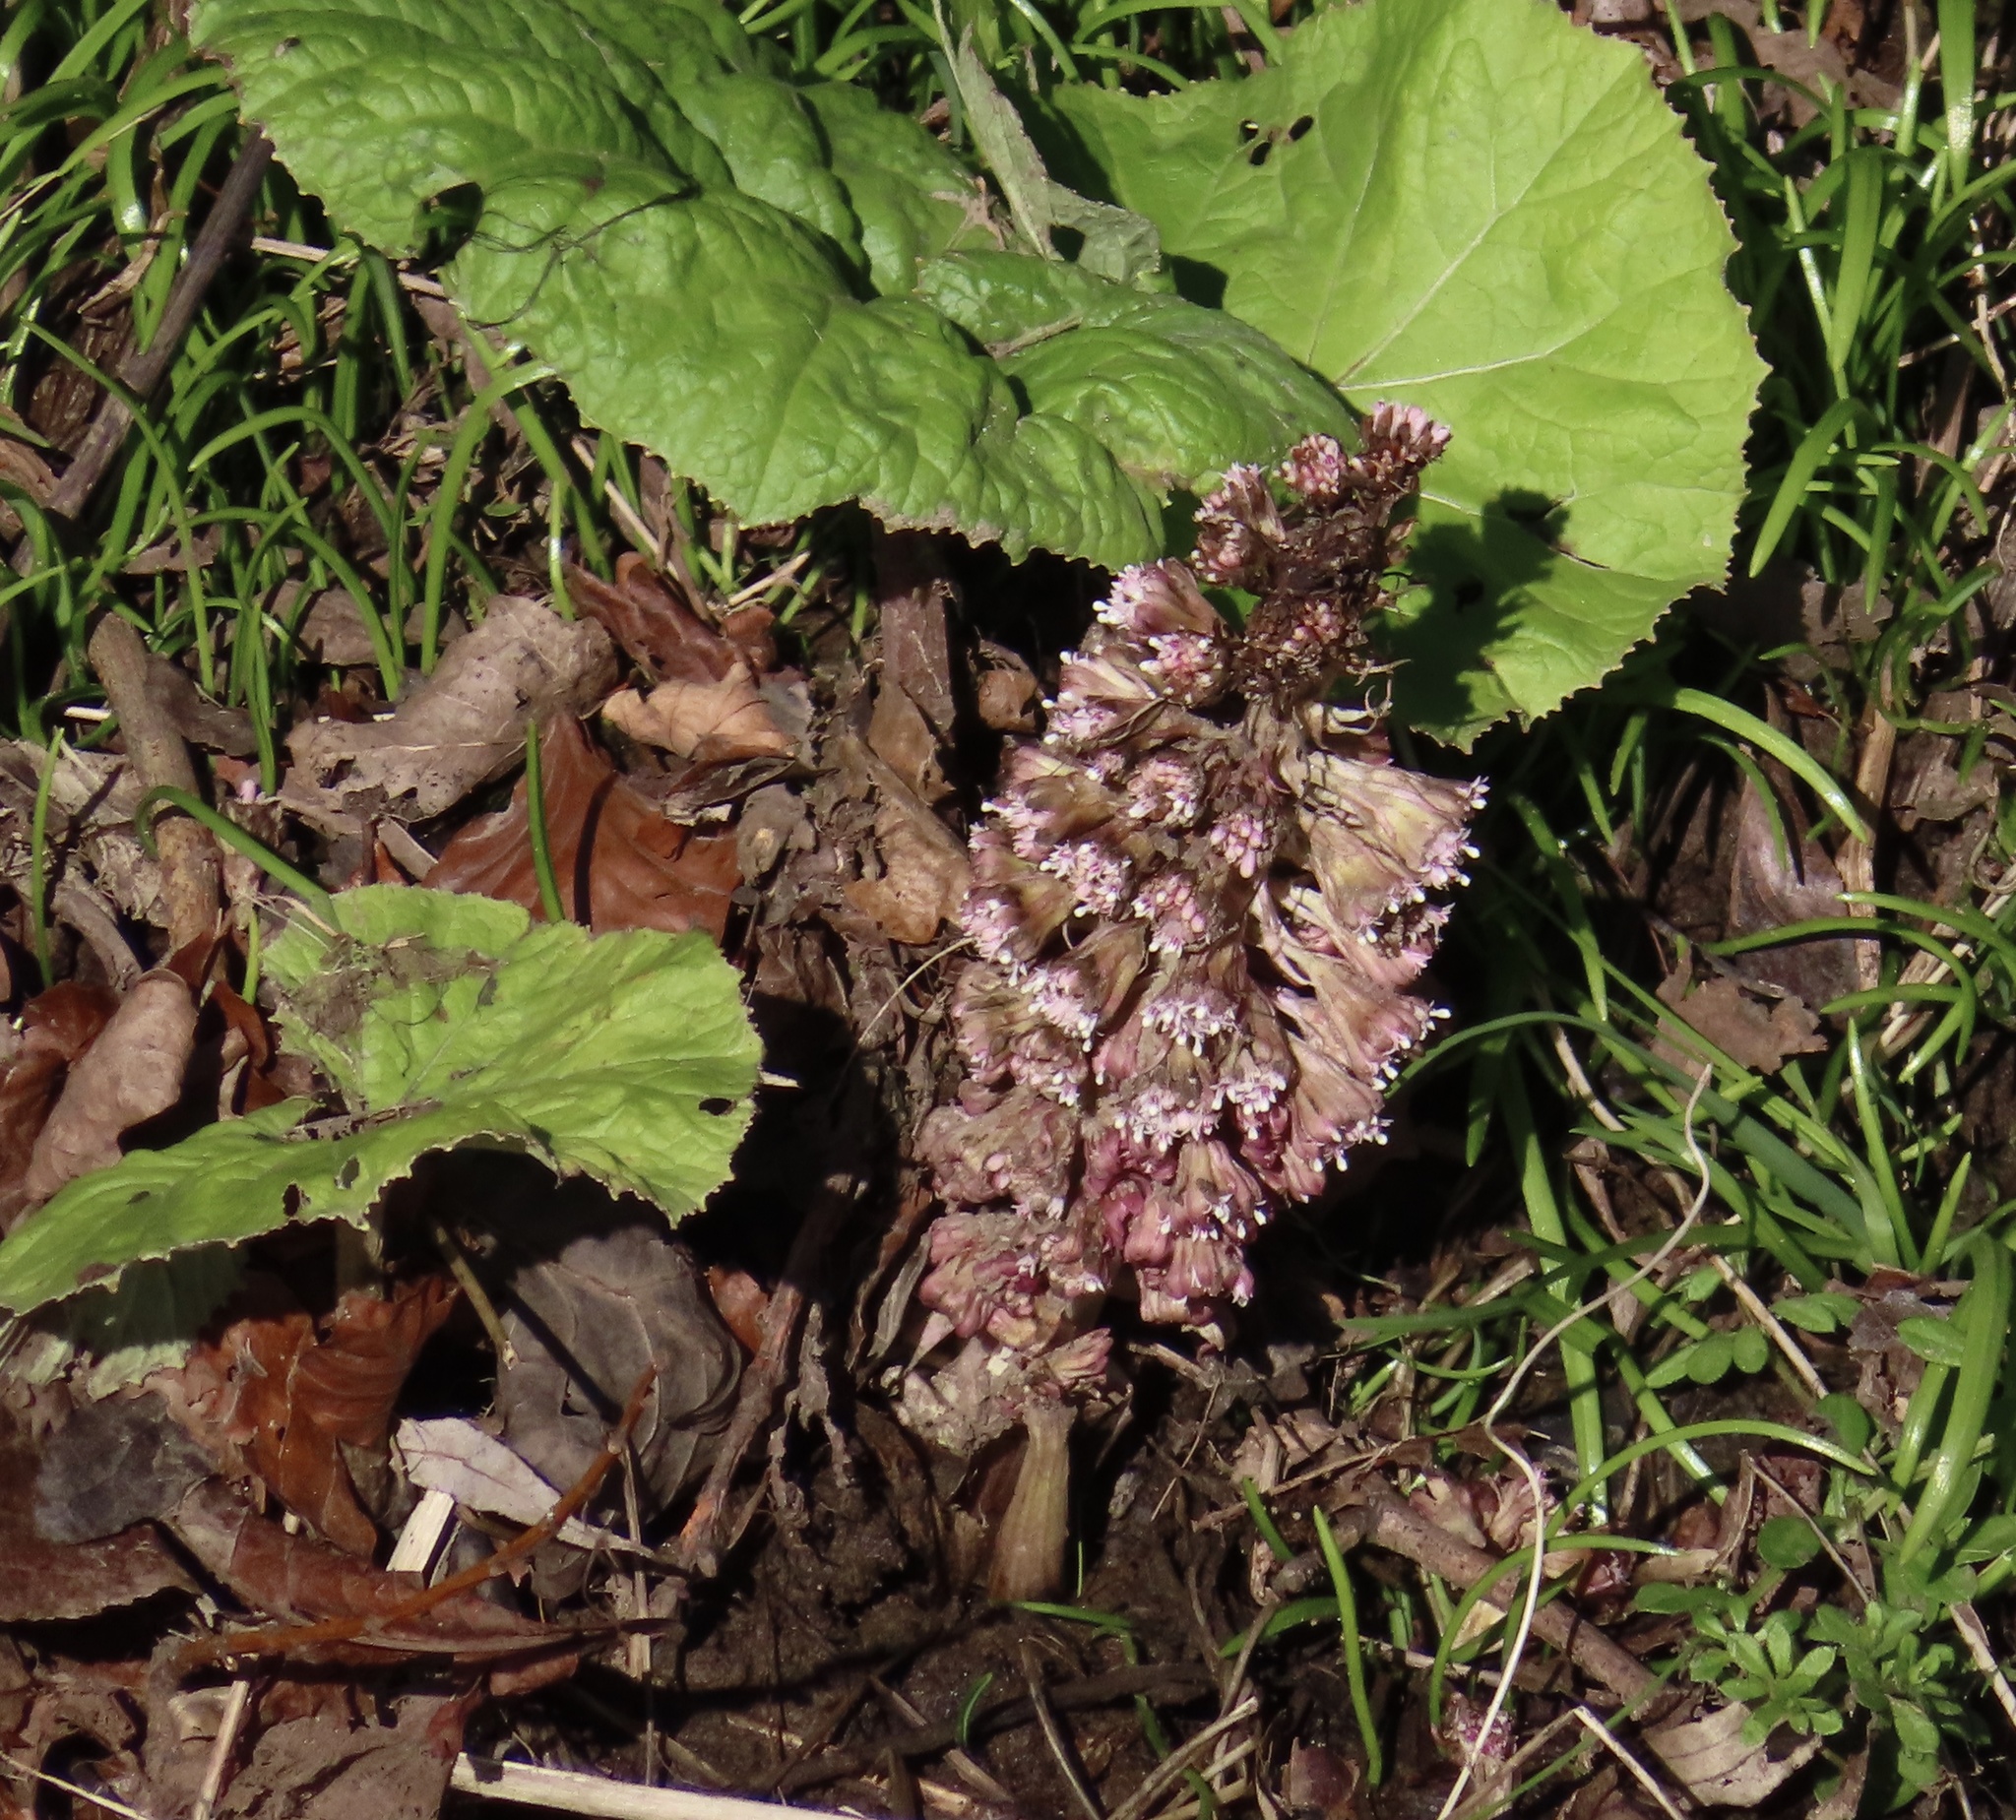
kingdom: Plantae
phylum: Tracheophyta
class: Magnoliopsida
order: Asterales
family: Asteraceae
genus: Petasites
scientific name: Petasites hybridus
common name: Butterbur
